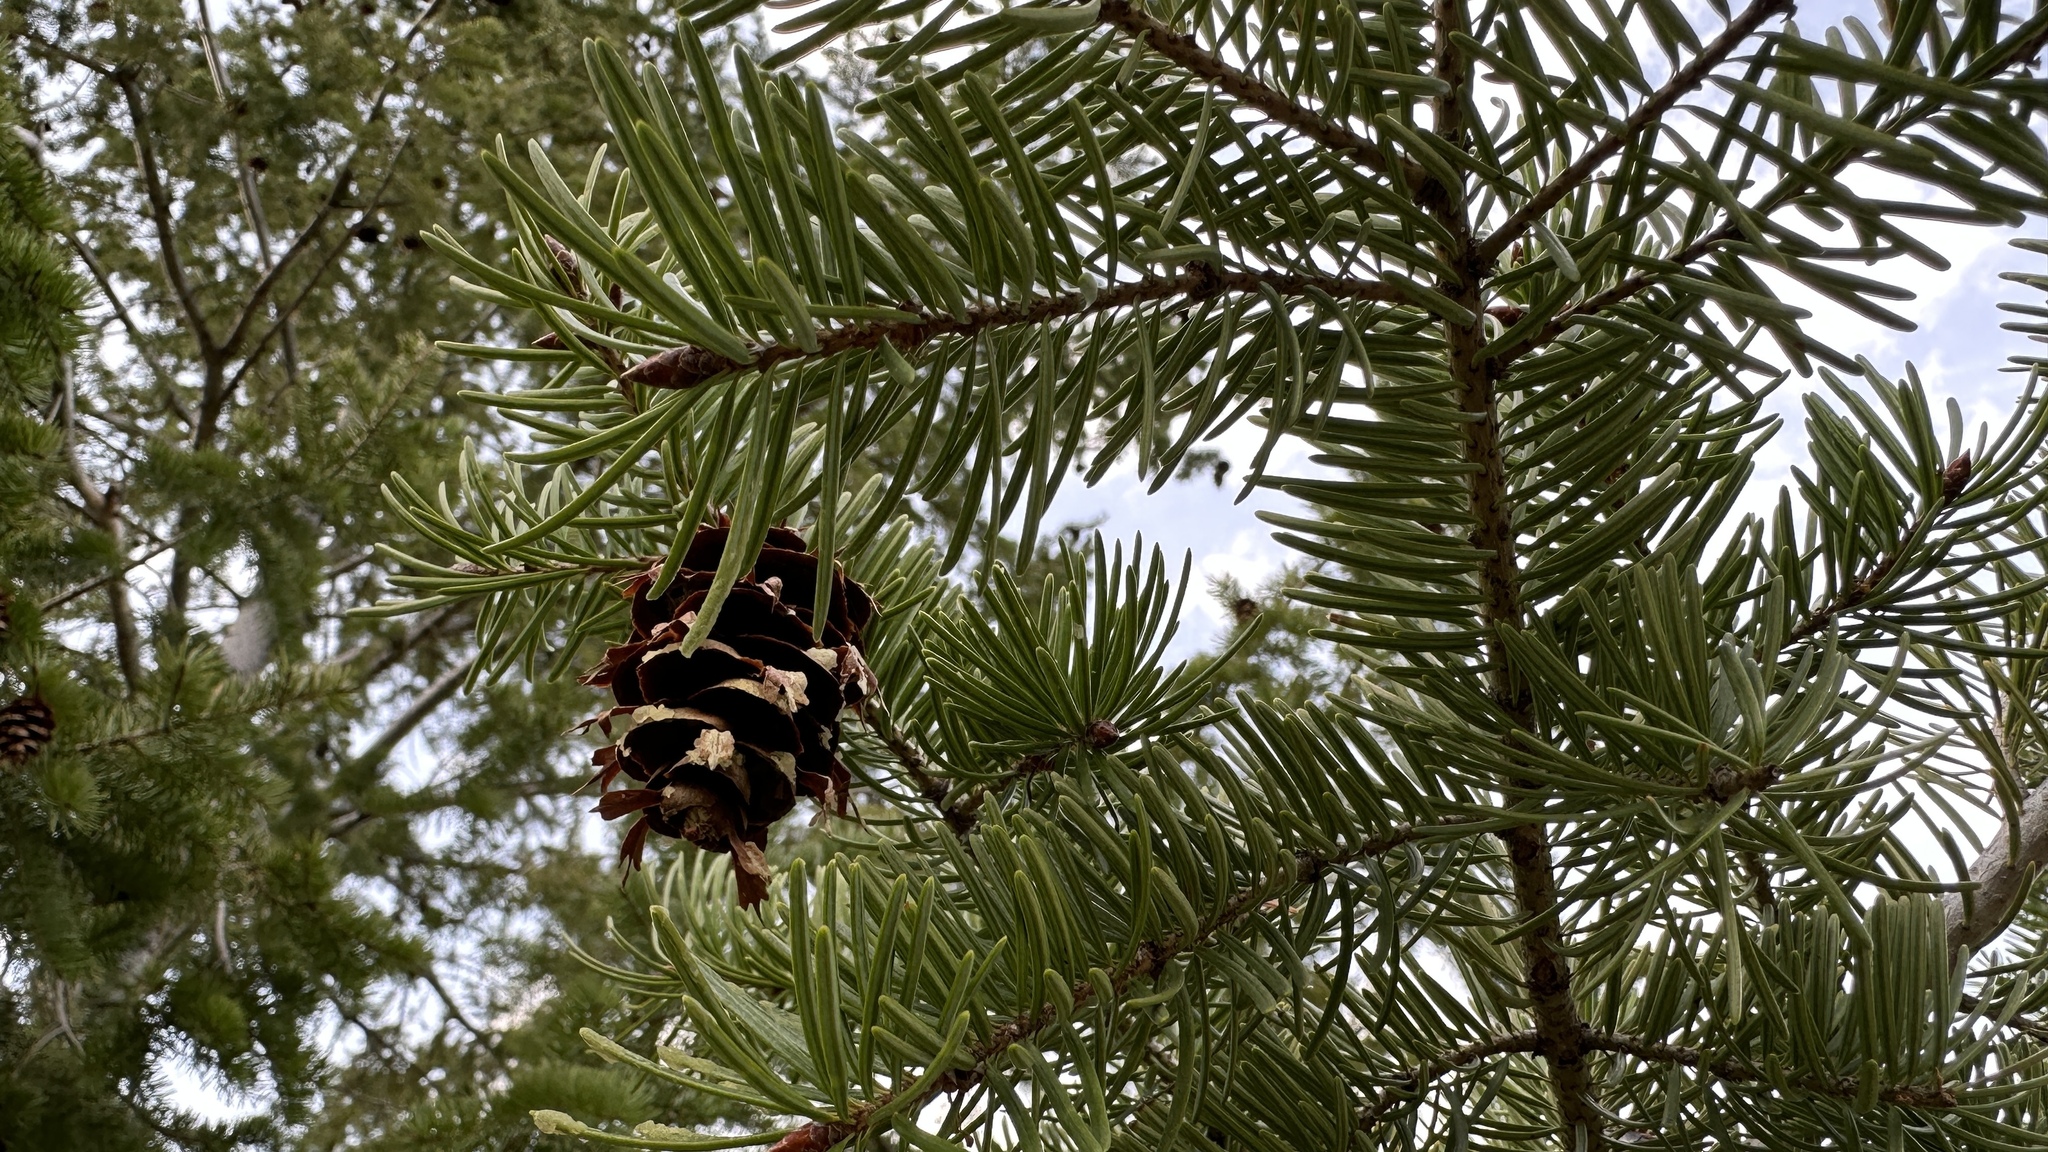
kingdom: Plantae
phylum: Tracheophyta
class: Pinopsida
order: Pinales
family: Pinaceae
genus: Pseudotsuga
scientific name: Pseudotsuga menziesii
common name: Douglas fir
